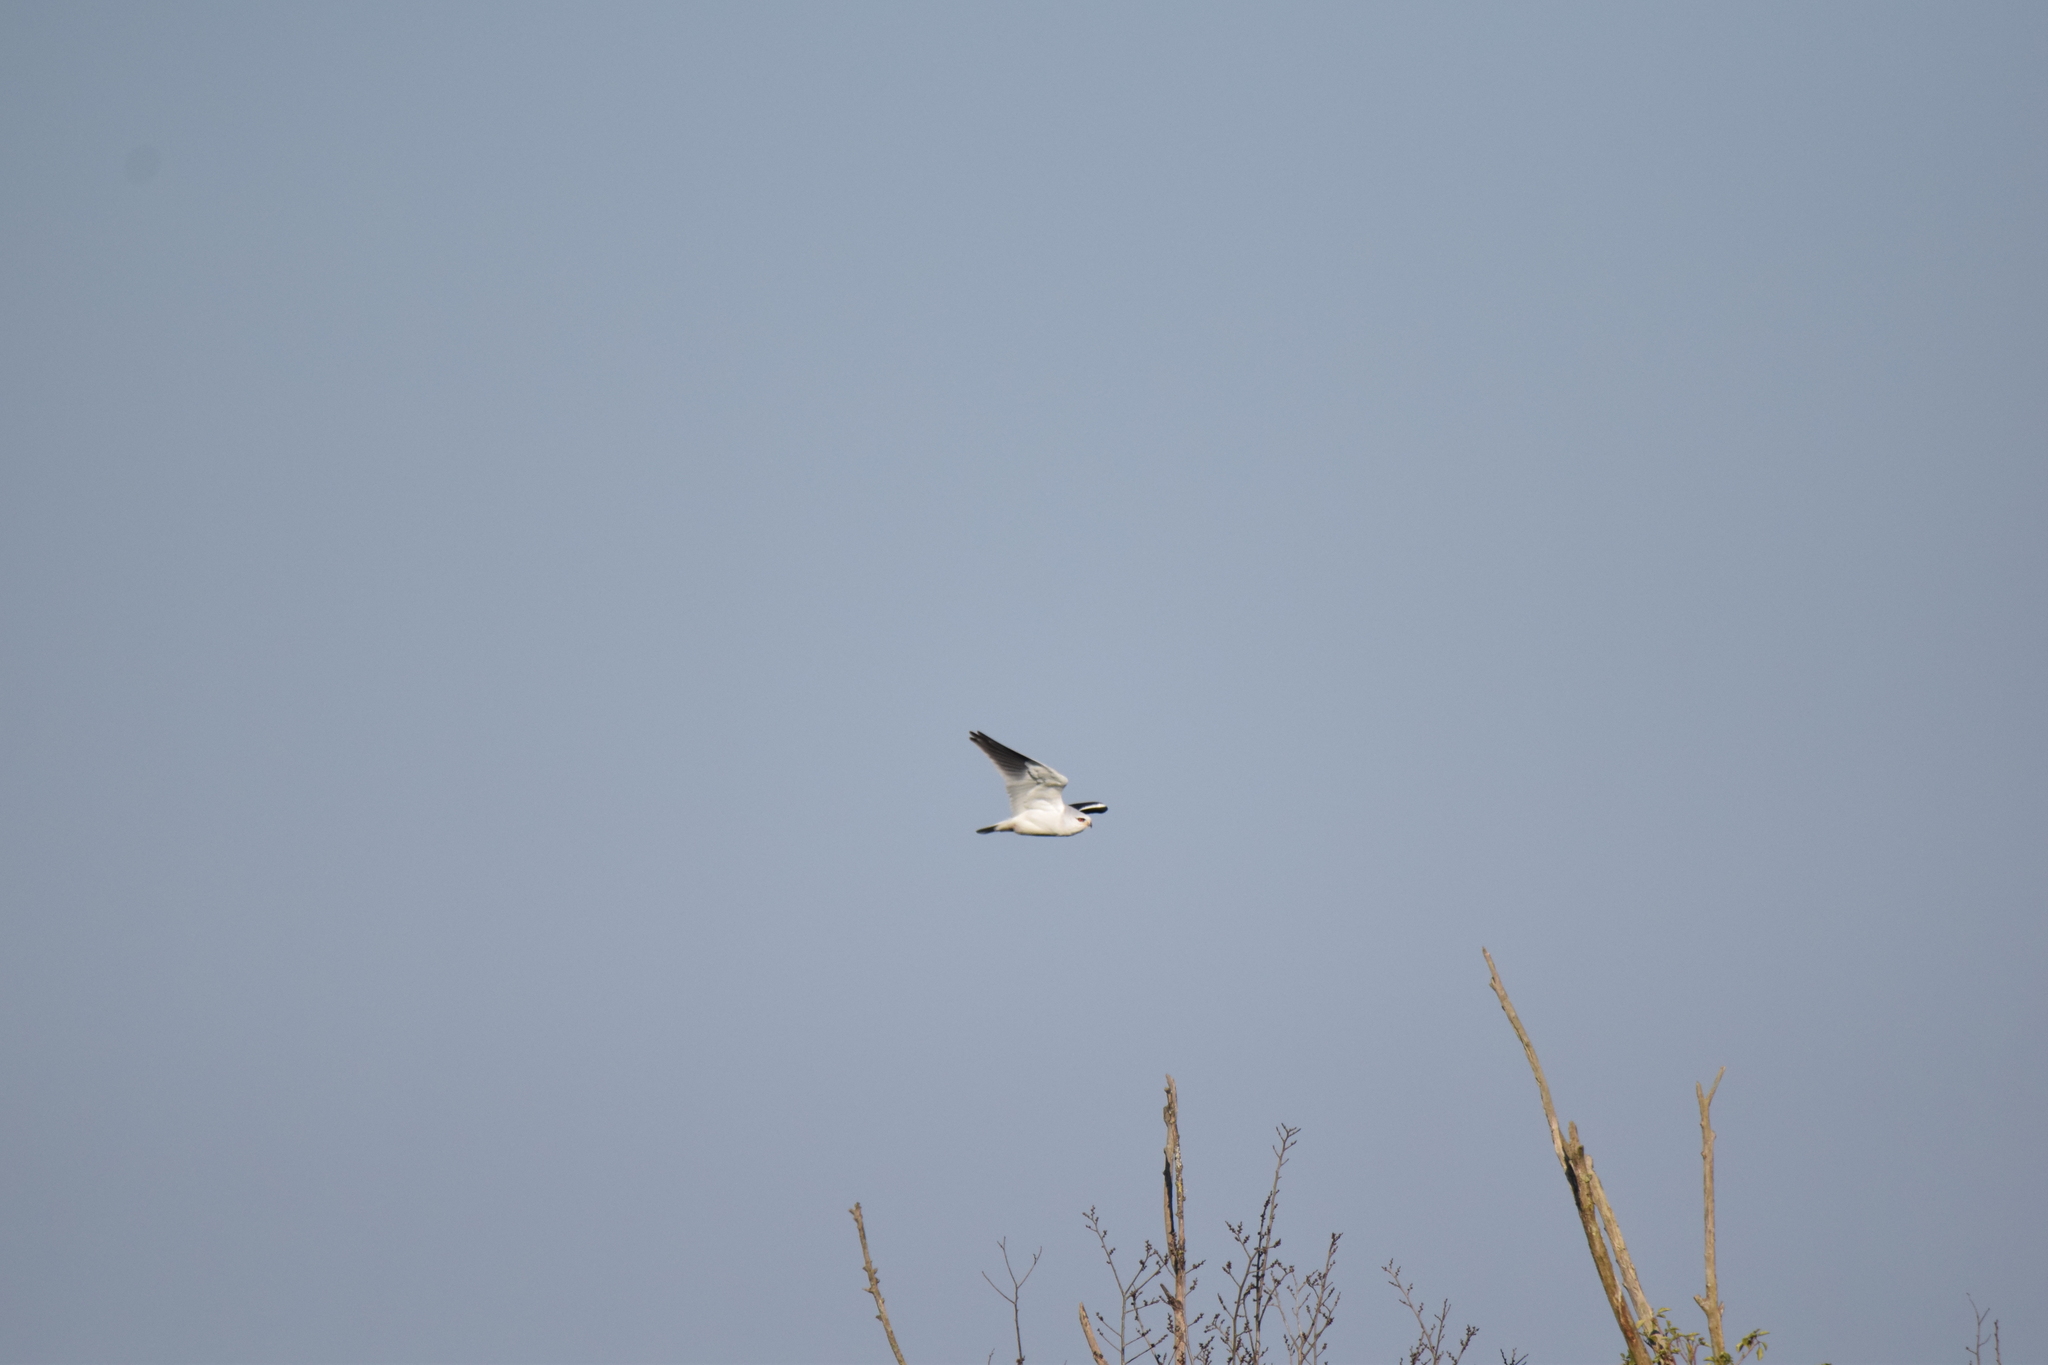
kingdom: Animalia
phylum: Chordata
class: Aves
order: Accipitriformes
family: Accipitridae
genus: Elanus
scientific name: Elanus caeruleus
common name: Black-winged kite
